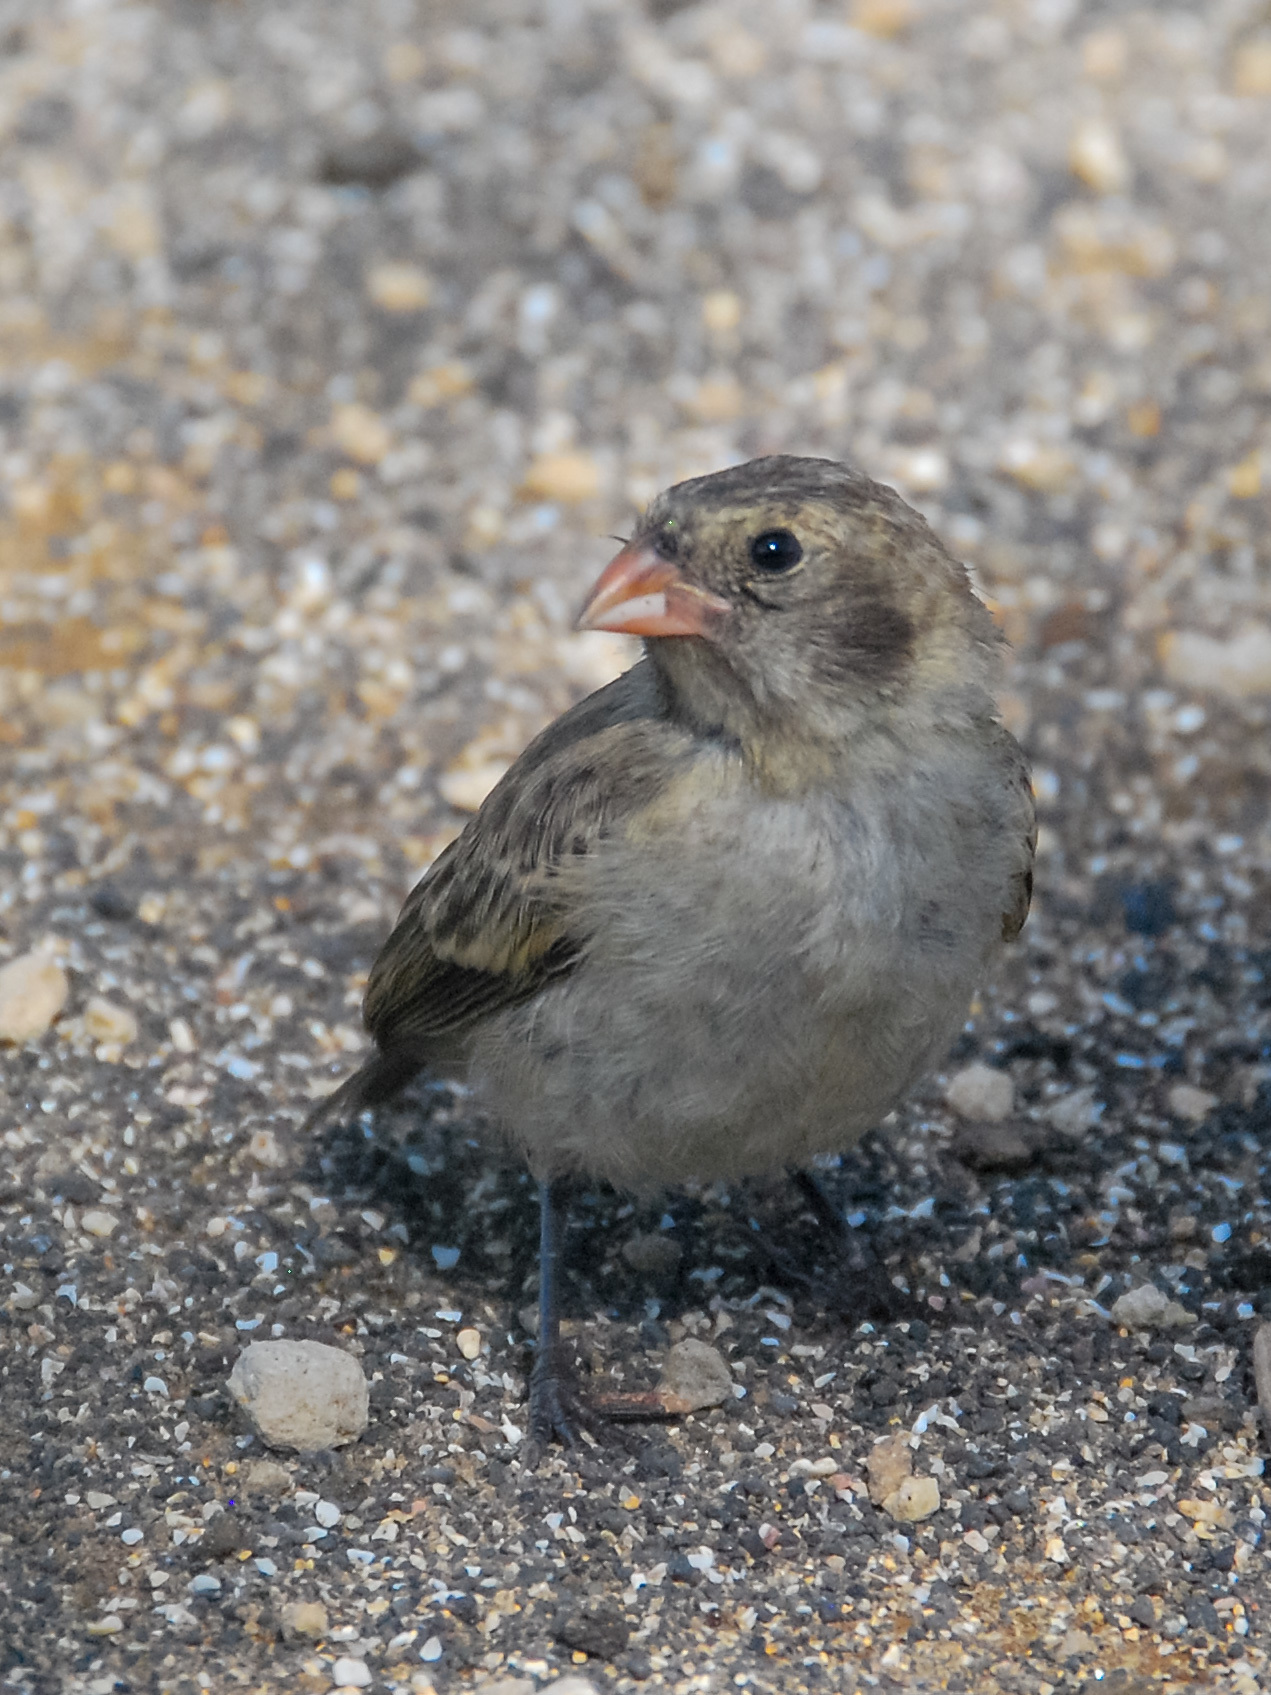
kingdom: Animalia
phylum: Chordata
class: Aves
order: Passeriformes
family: Thraupidae
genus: Geospiza
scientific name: Geospiza fuliginosa
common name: Small ground finch
